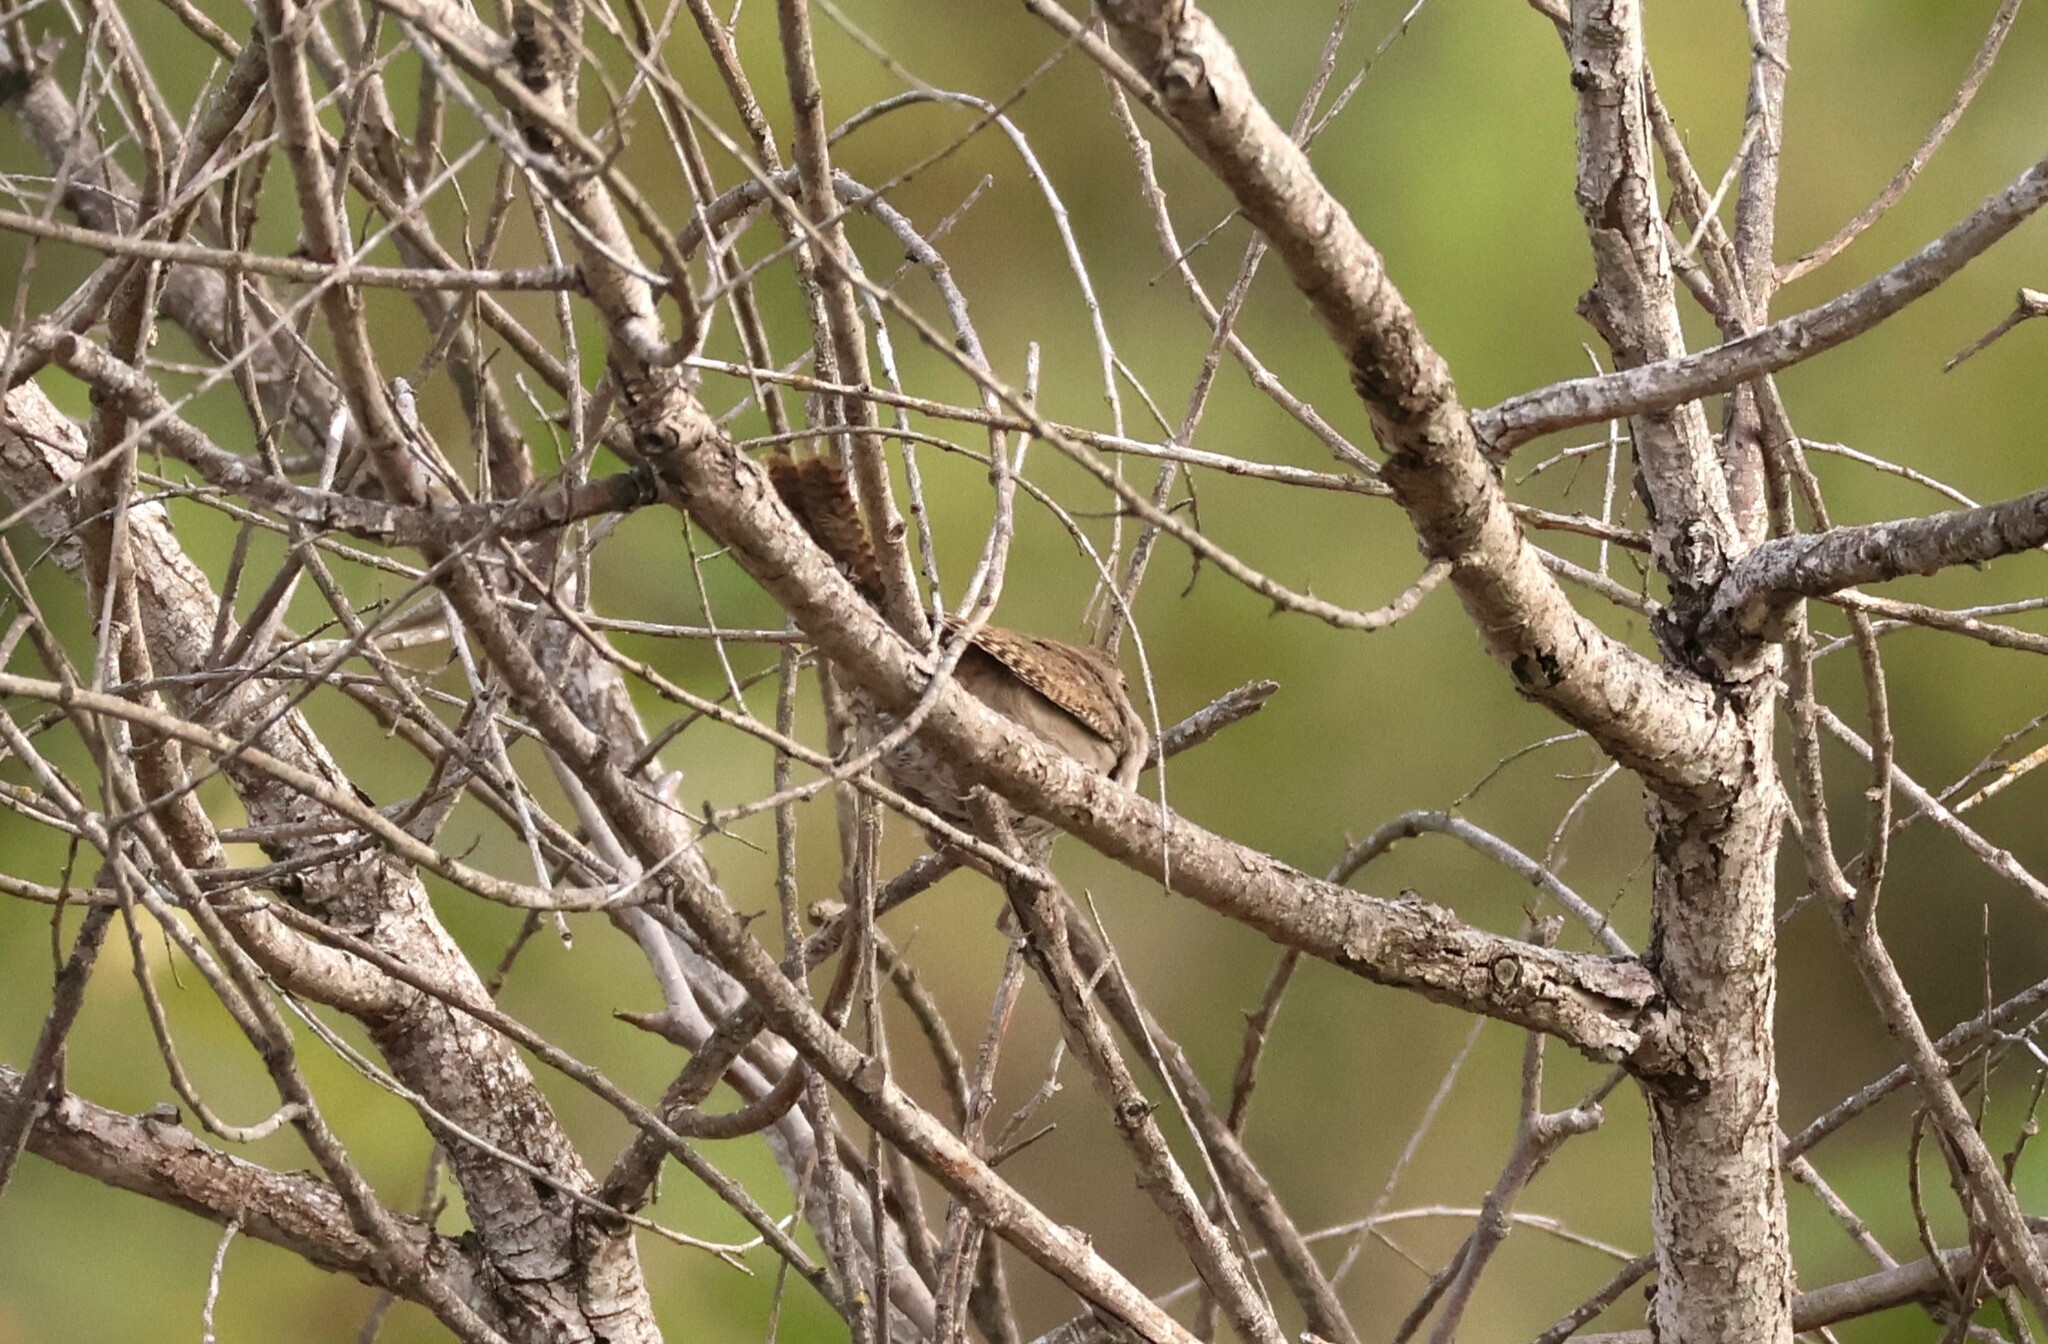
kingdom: Animalia
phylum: Chordata
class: Aves
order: Passeriformes
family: Troglodytidae
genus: Troglodytes
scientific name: Troglodytes aedon
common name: House wren
